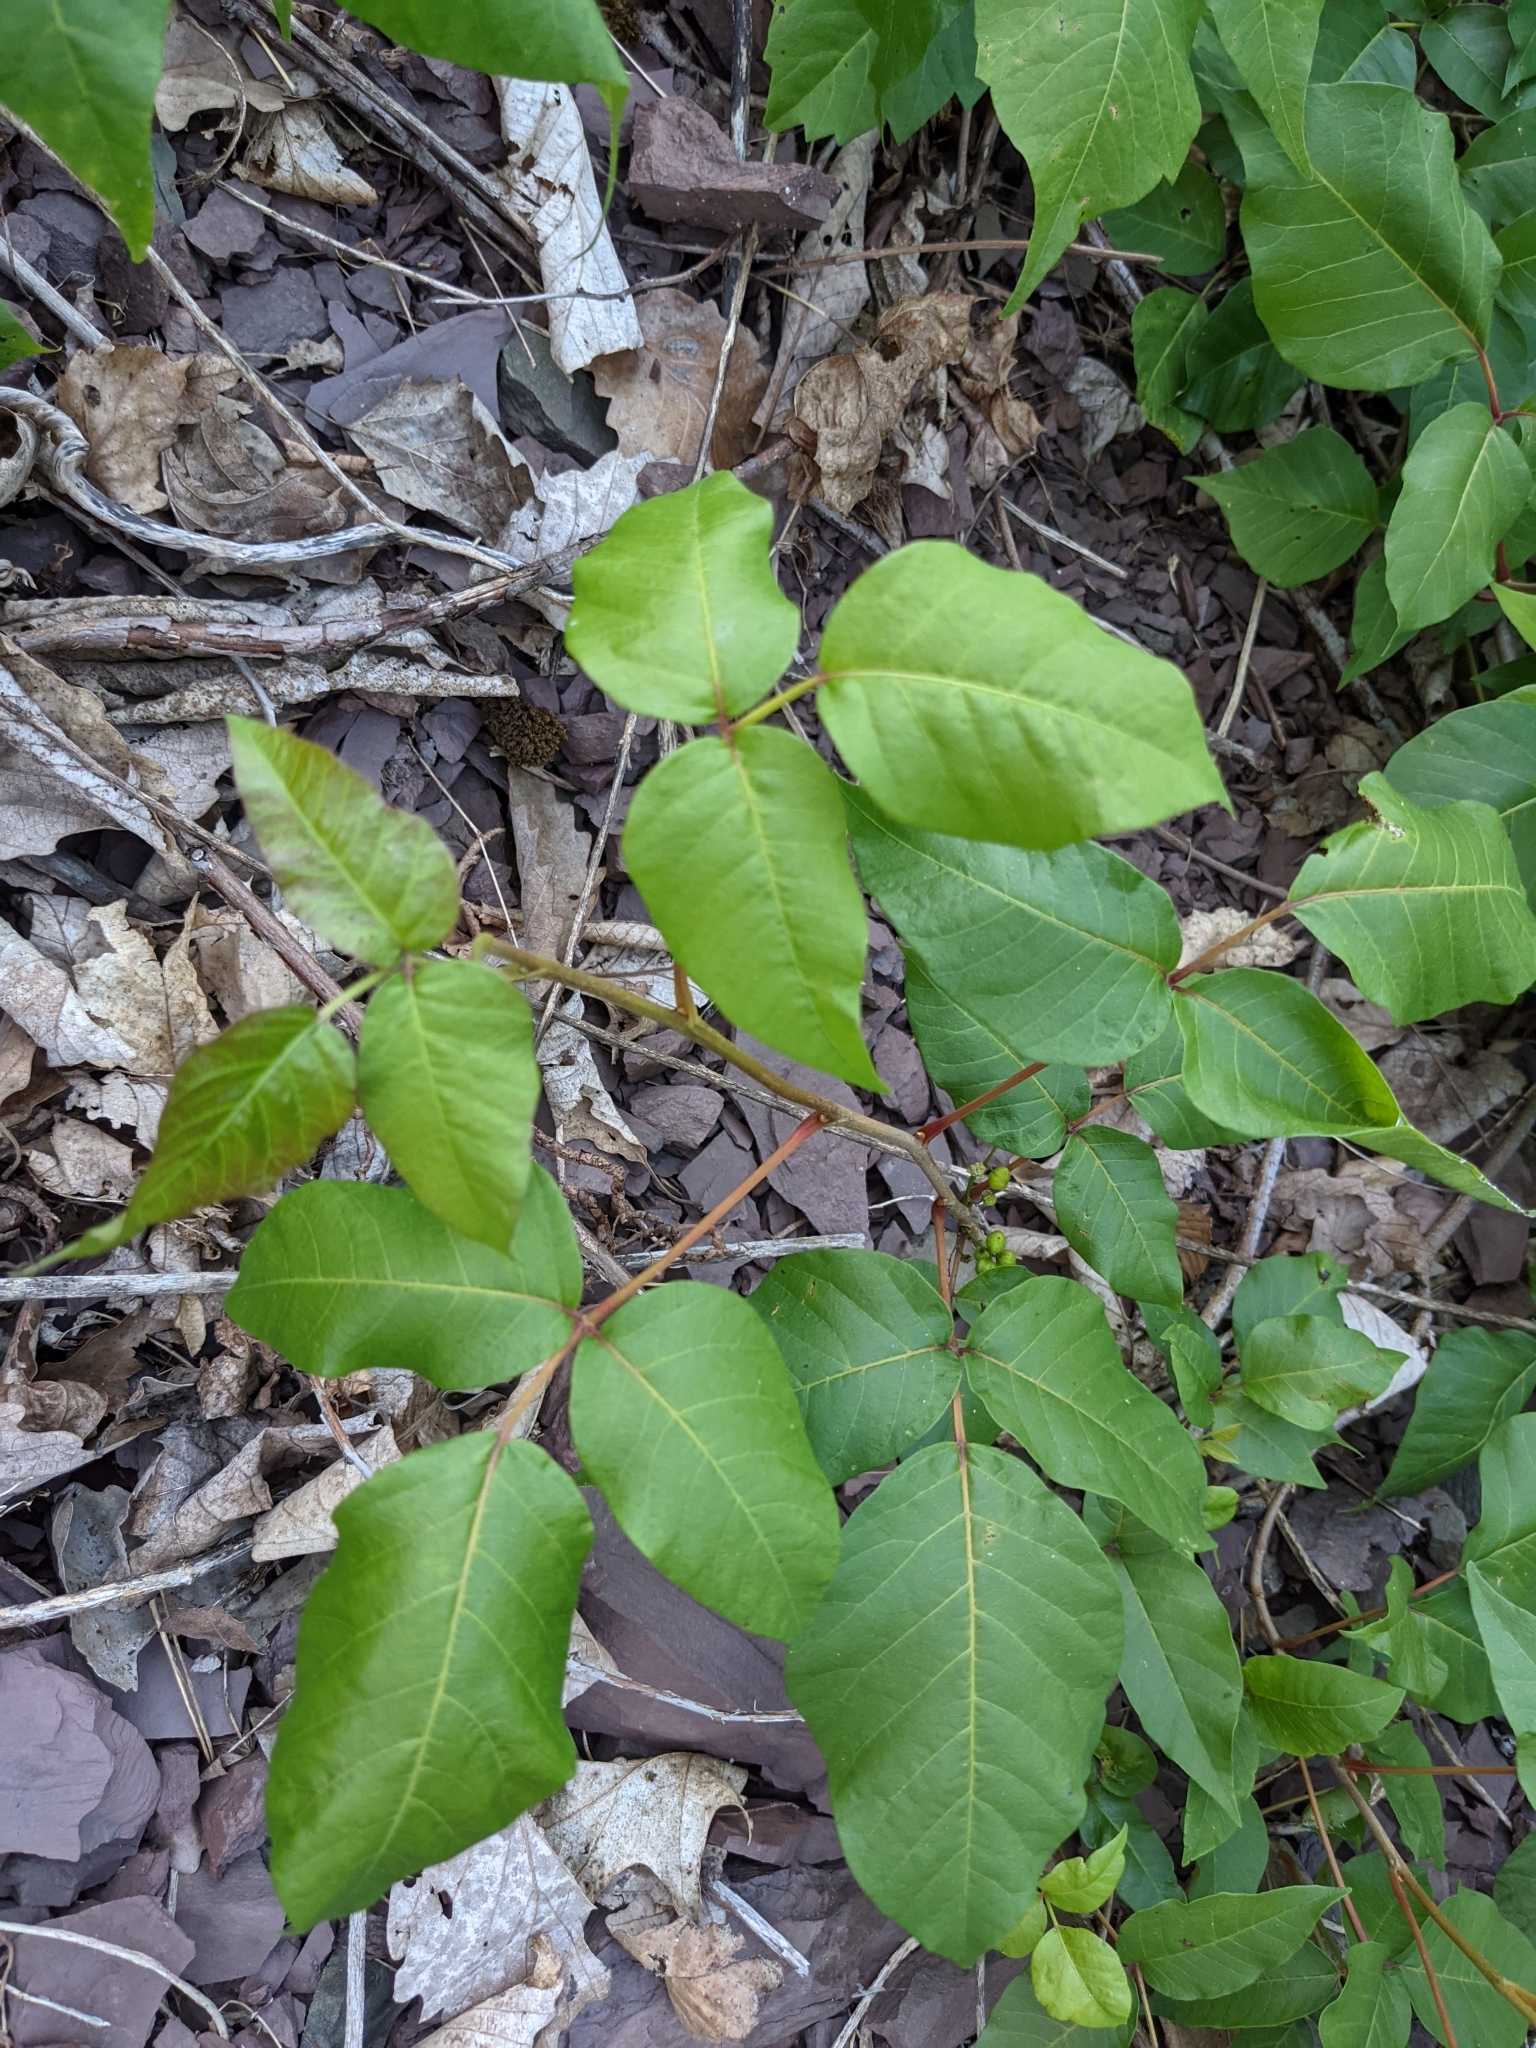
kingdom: Plantae
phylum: Tracheophyta
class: Magnoliopsida
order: Sapindales
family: Anacardiaceae
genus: Toxicodendron
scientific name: Toxicodendron radicans
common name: Poison ivy
